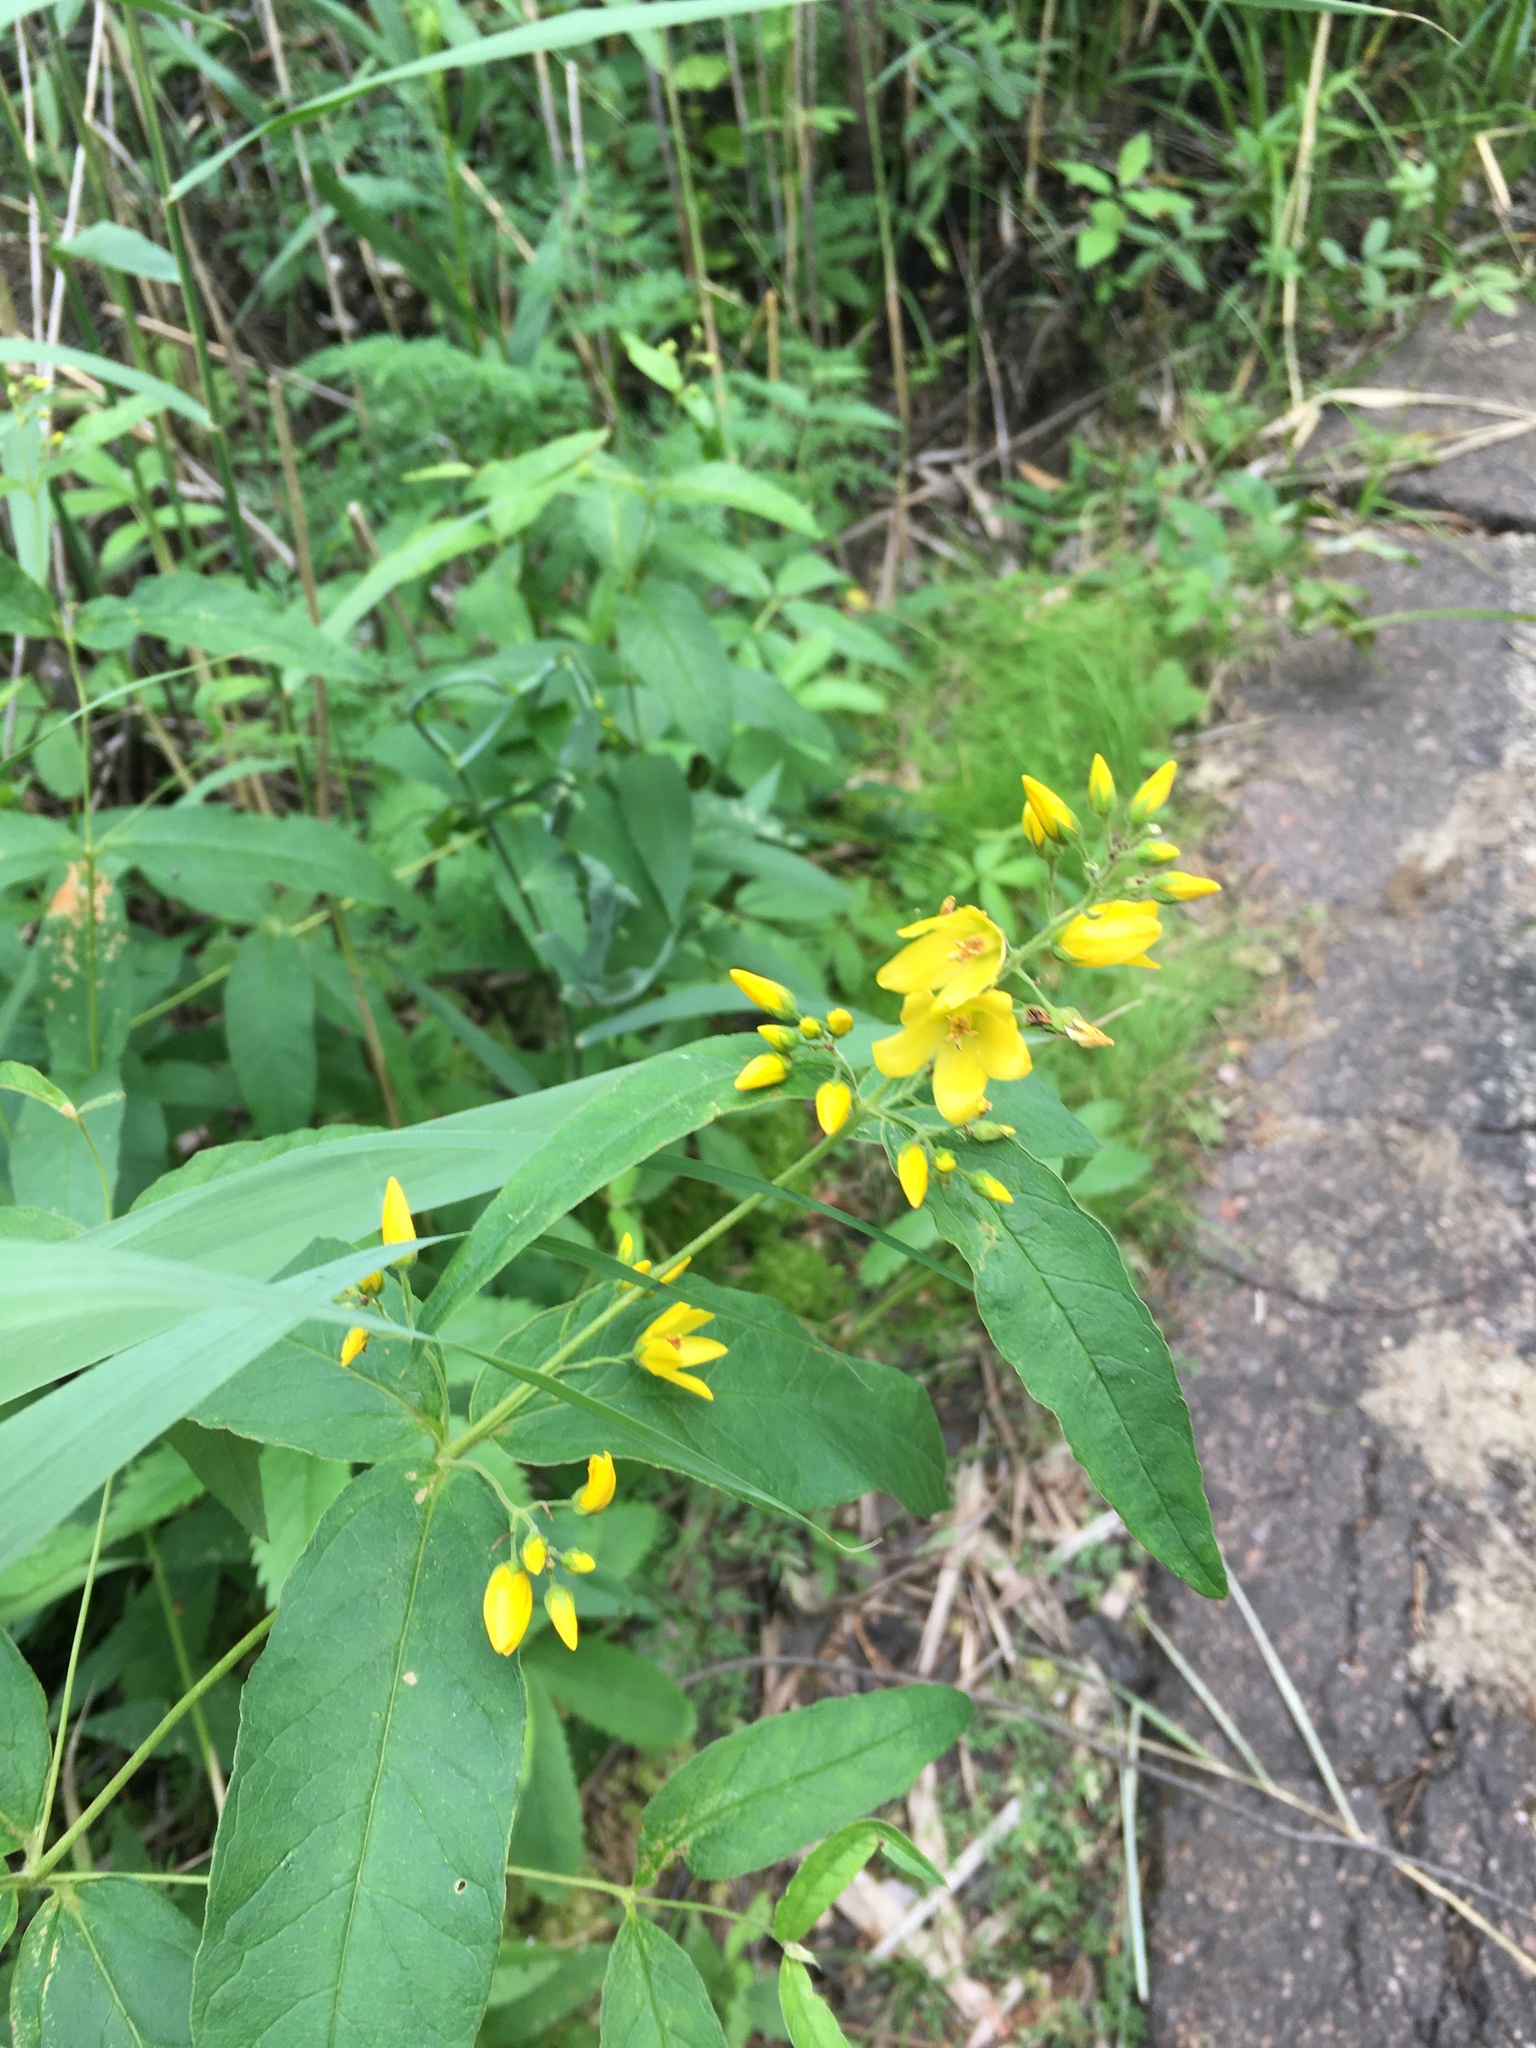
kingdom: Plantae
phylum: Tracheophyta
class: Magnoliopsida
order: Ericales
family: Primulaceae
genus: Lysimachia
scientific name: Lysimachia vulgaris
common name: Yellow loosestrife
